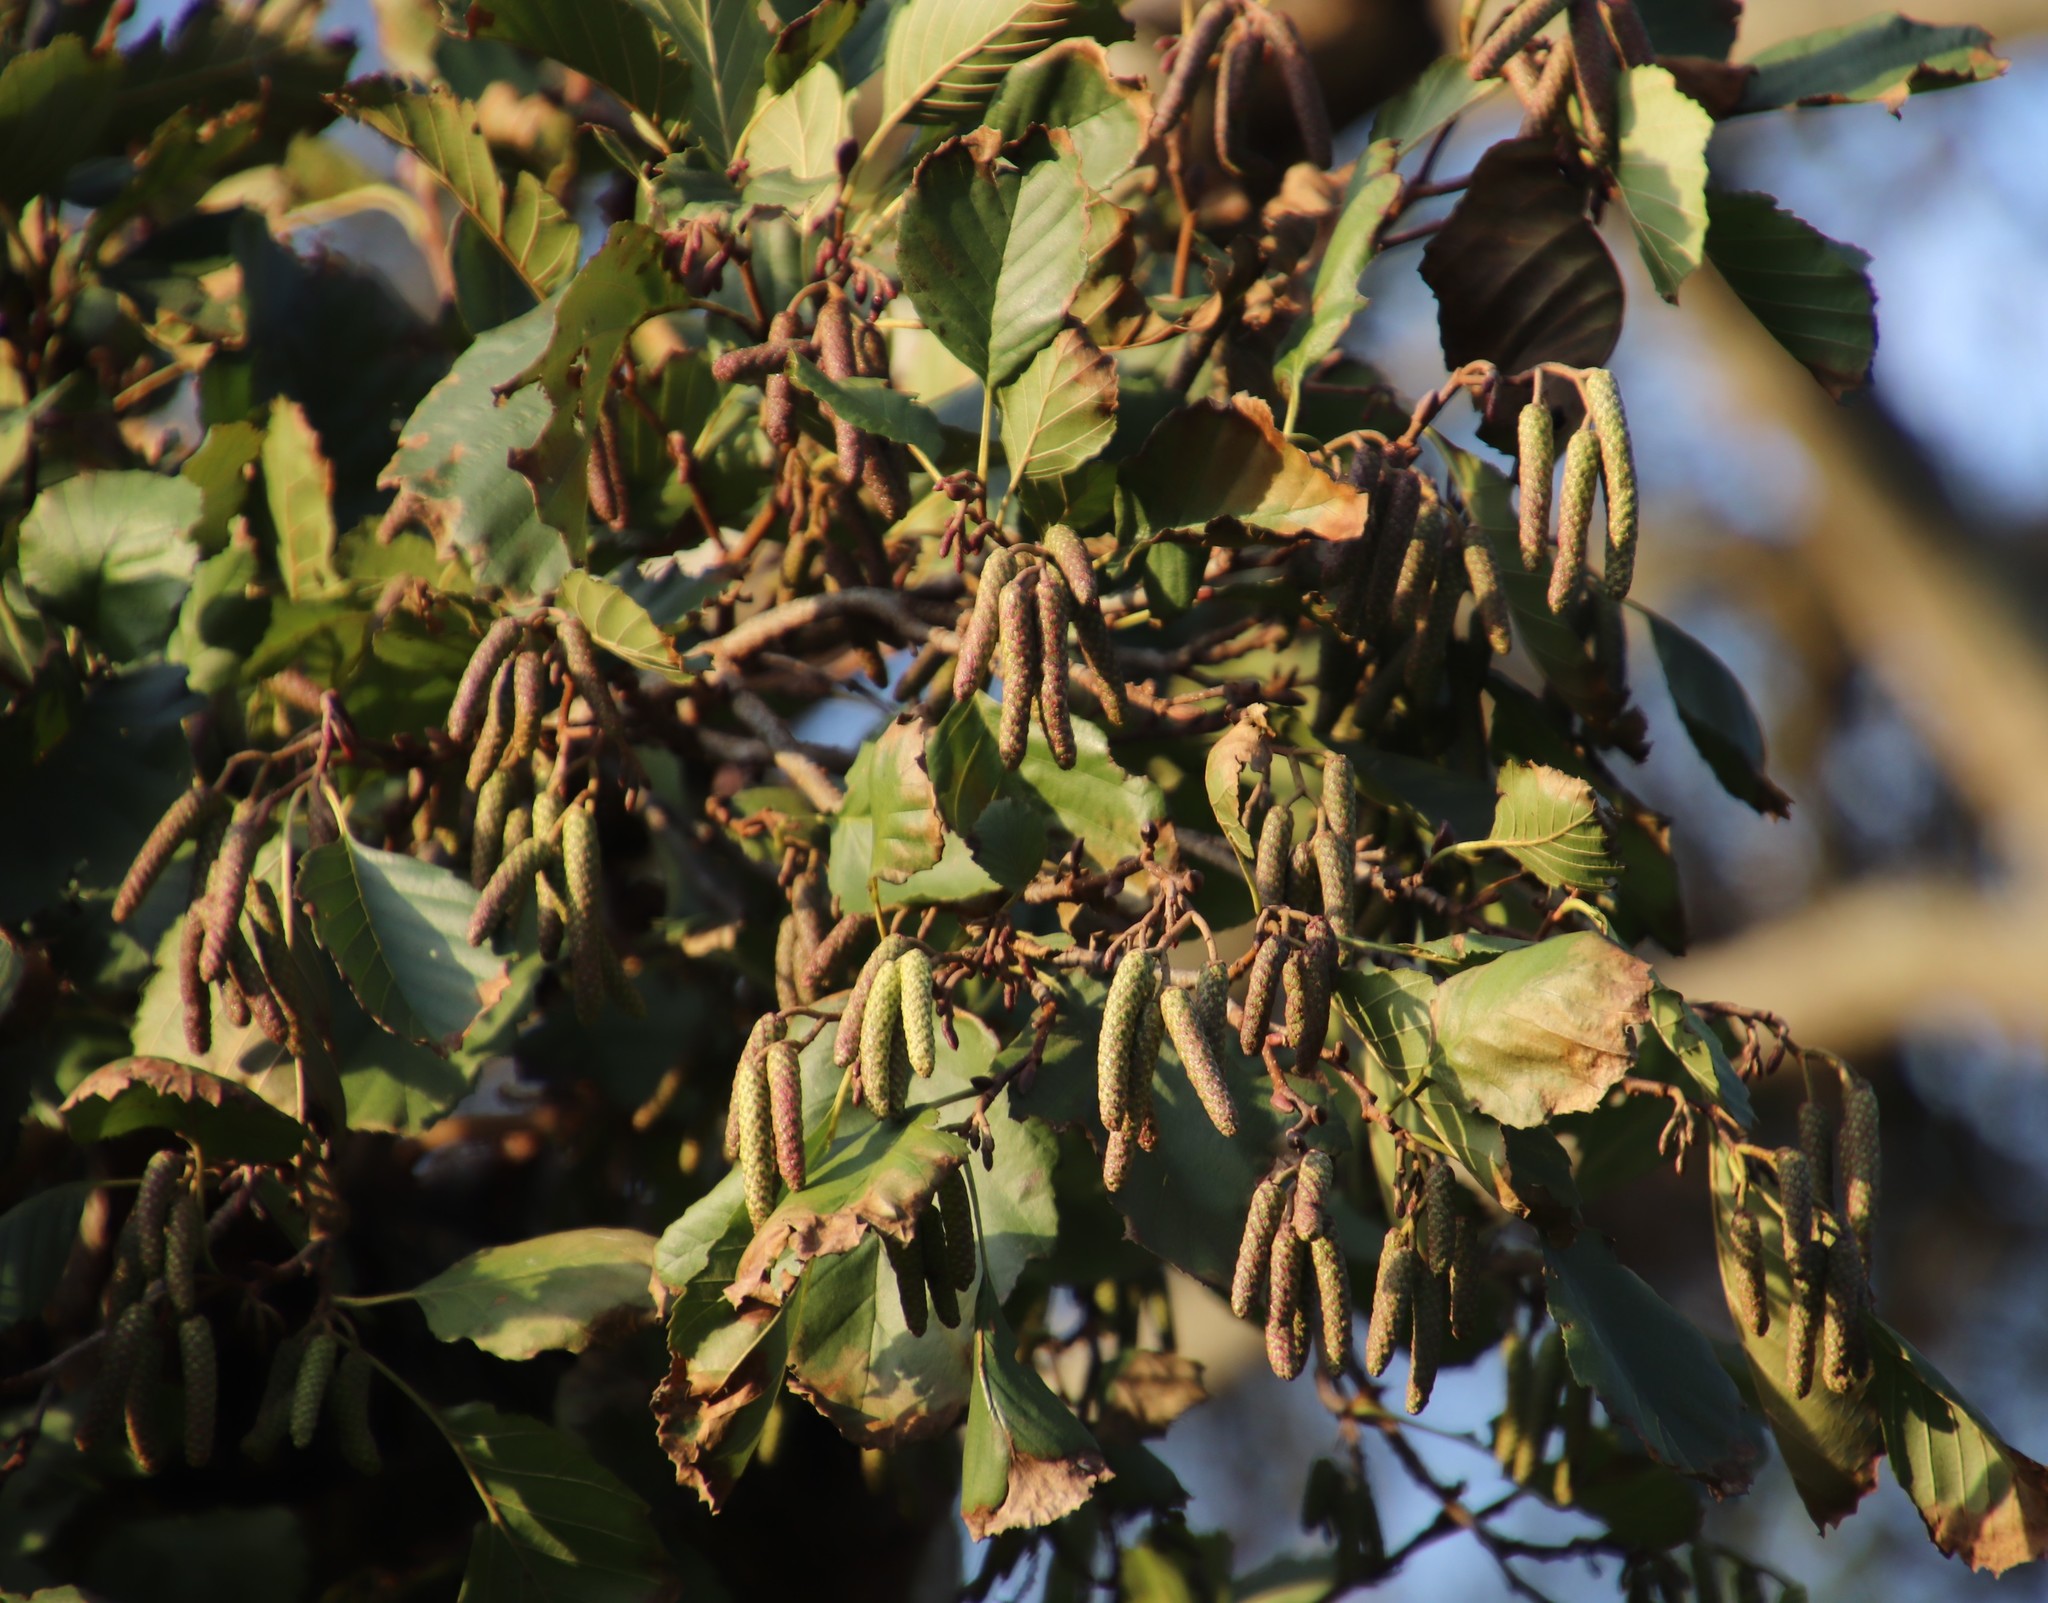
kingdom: Plantae
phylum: Tracheophyta
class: Magnoliopsida
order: Fagales
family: Betulaceae
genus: Alnus
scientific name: Alnus glutinosa
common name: Black alder
